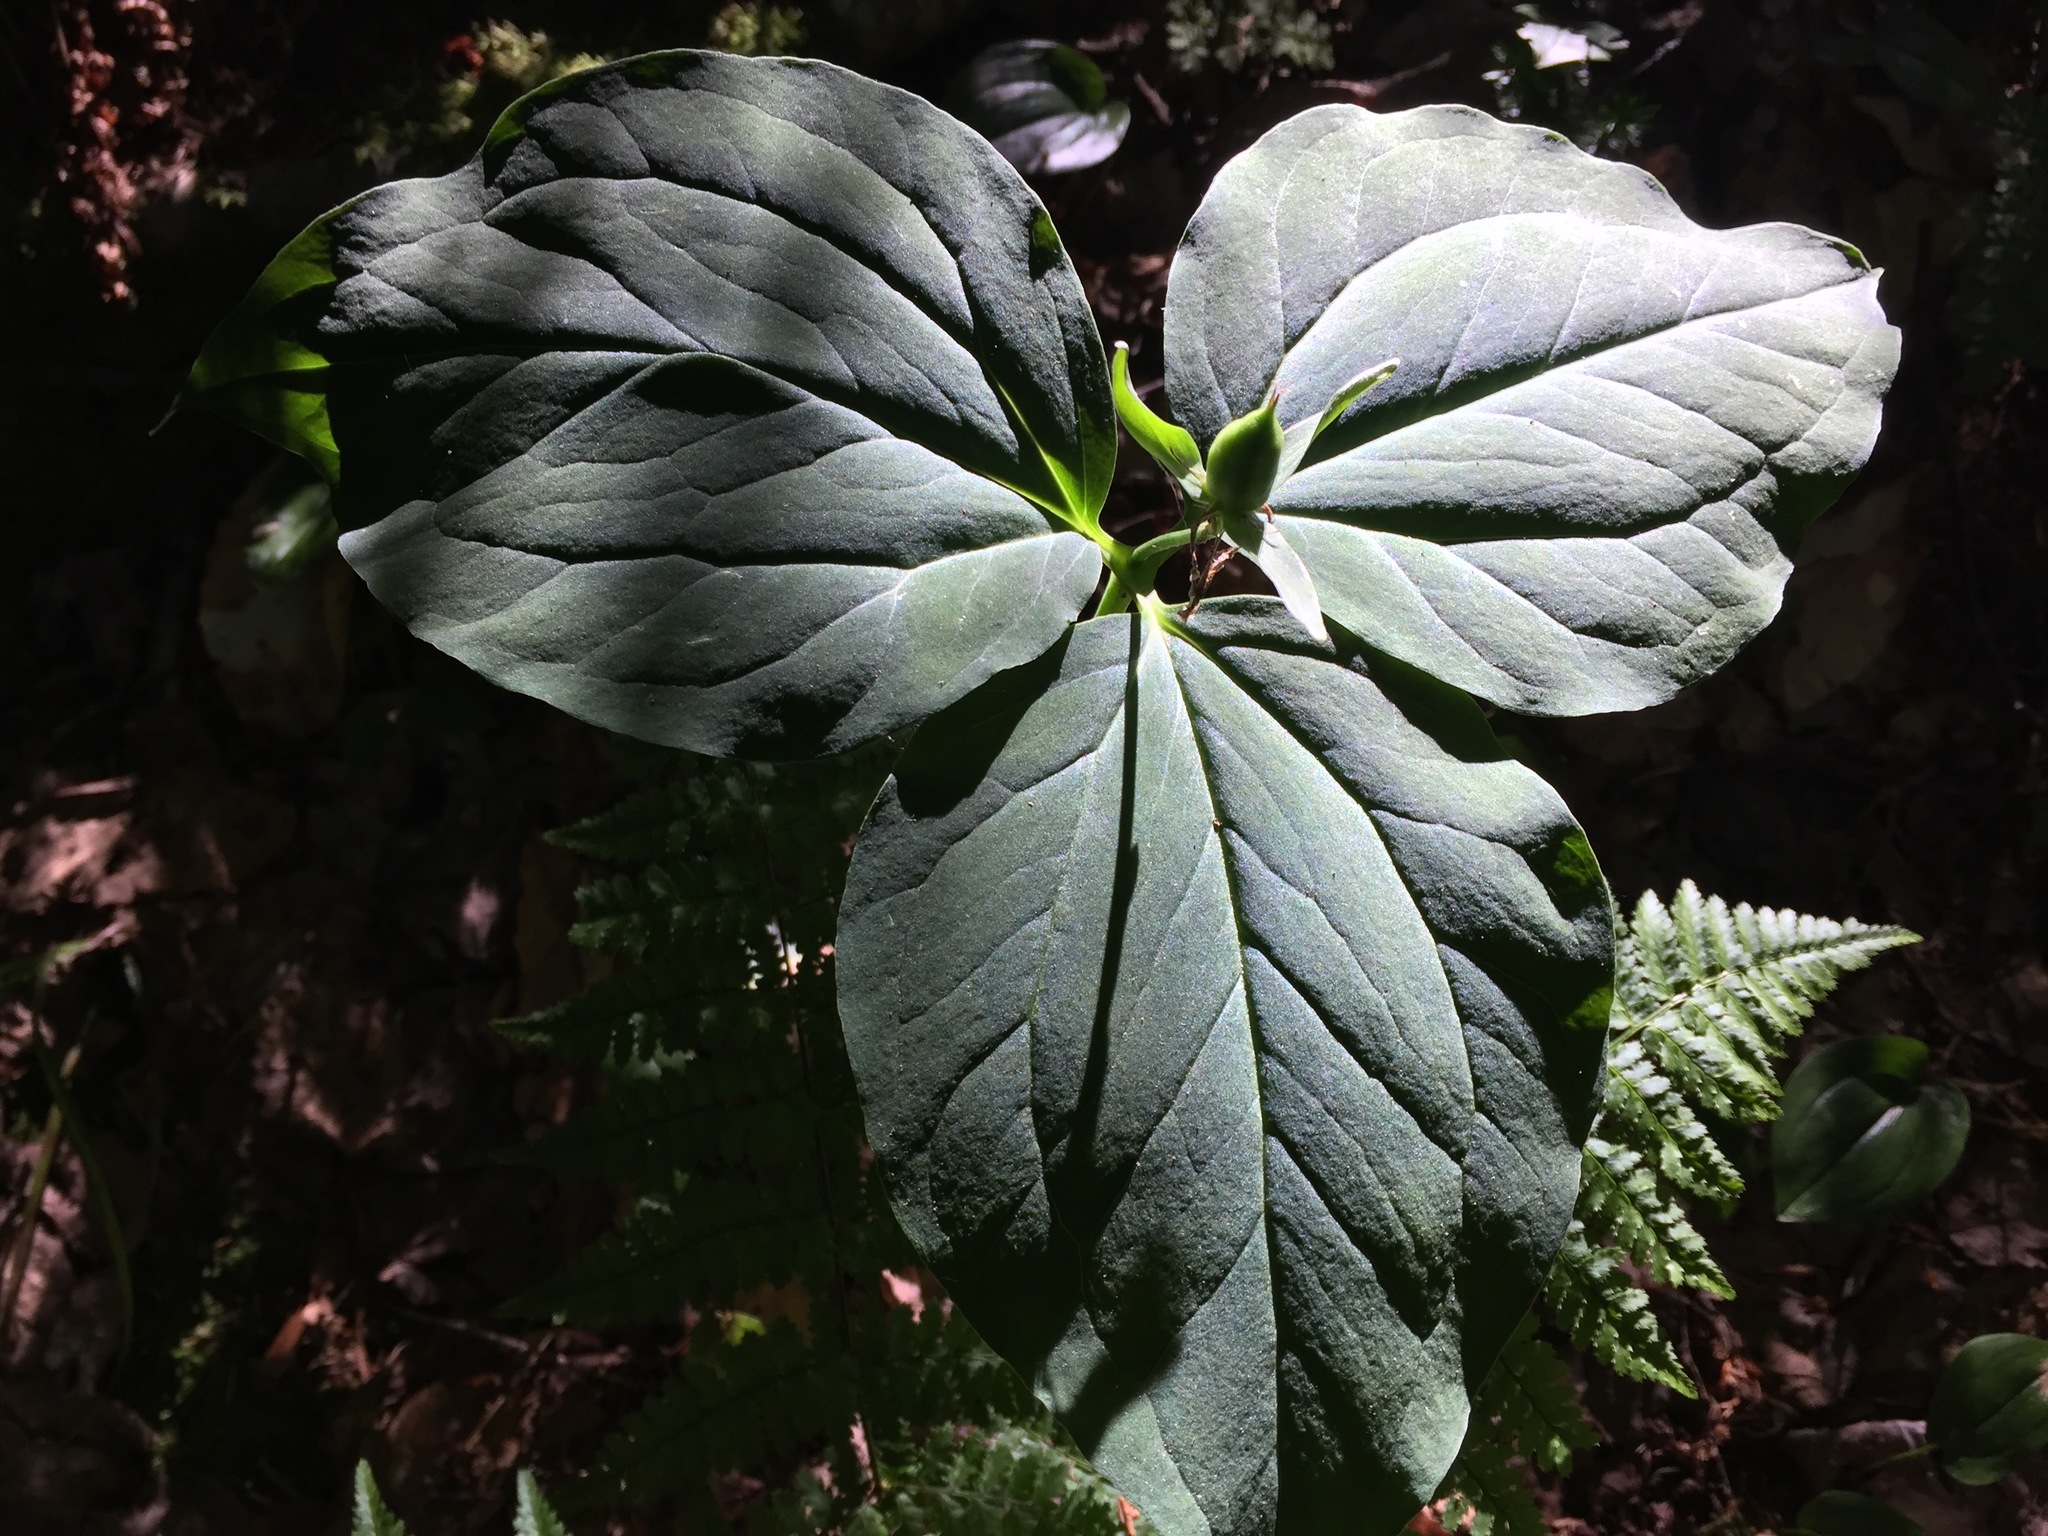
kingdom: Plantae
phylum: Tracheophyta
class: Liliopsida
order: Liliales
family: Melanthiaceae
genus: Trillium
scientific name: Trillium undulatum
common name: Paint trillium
